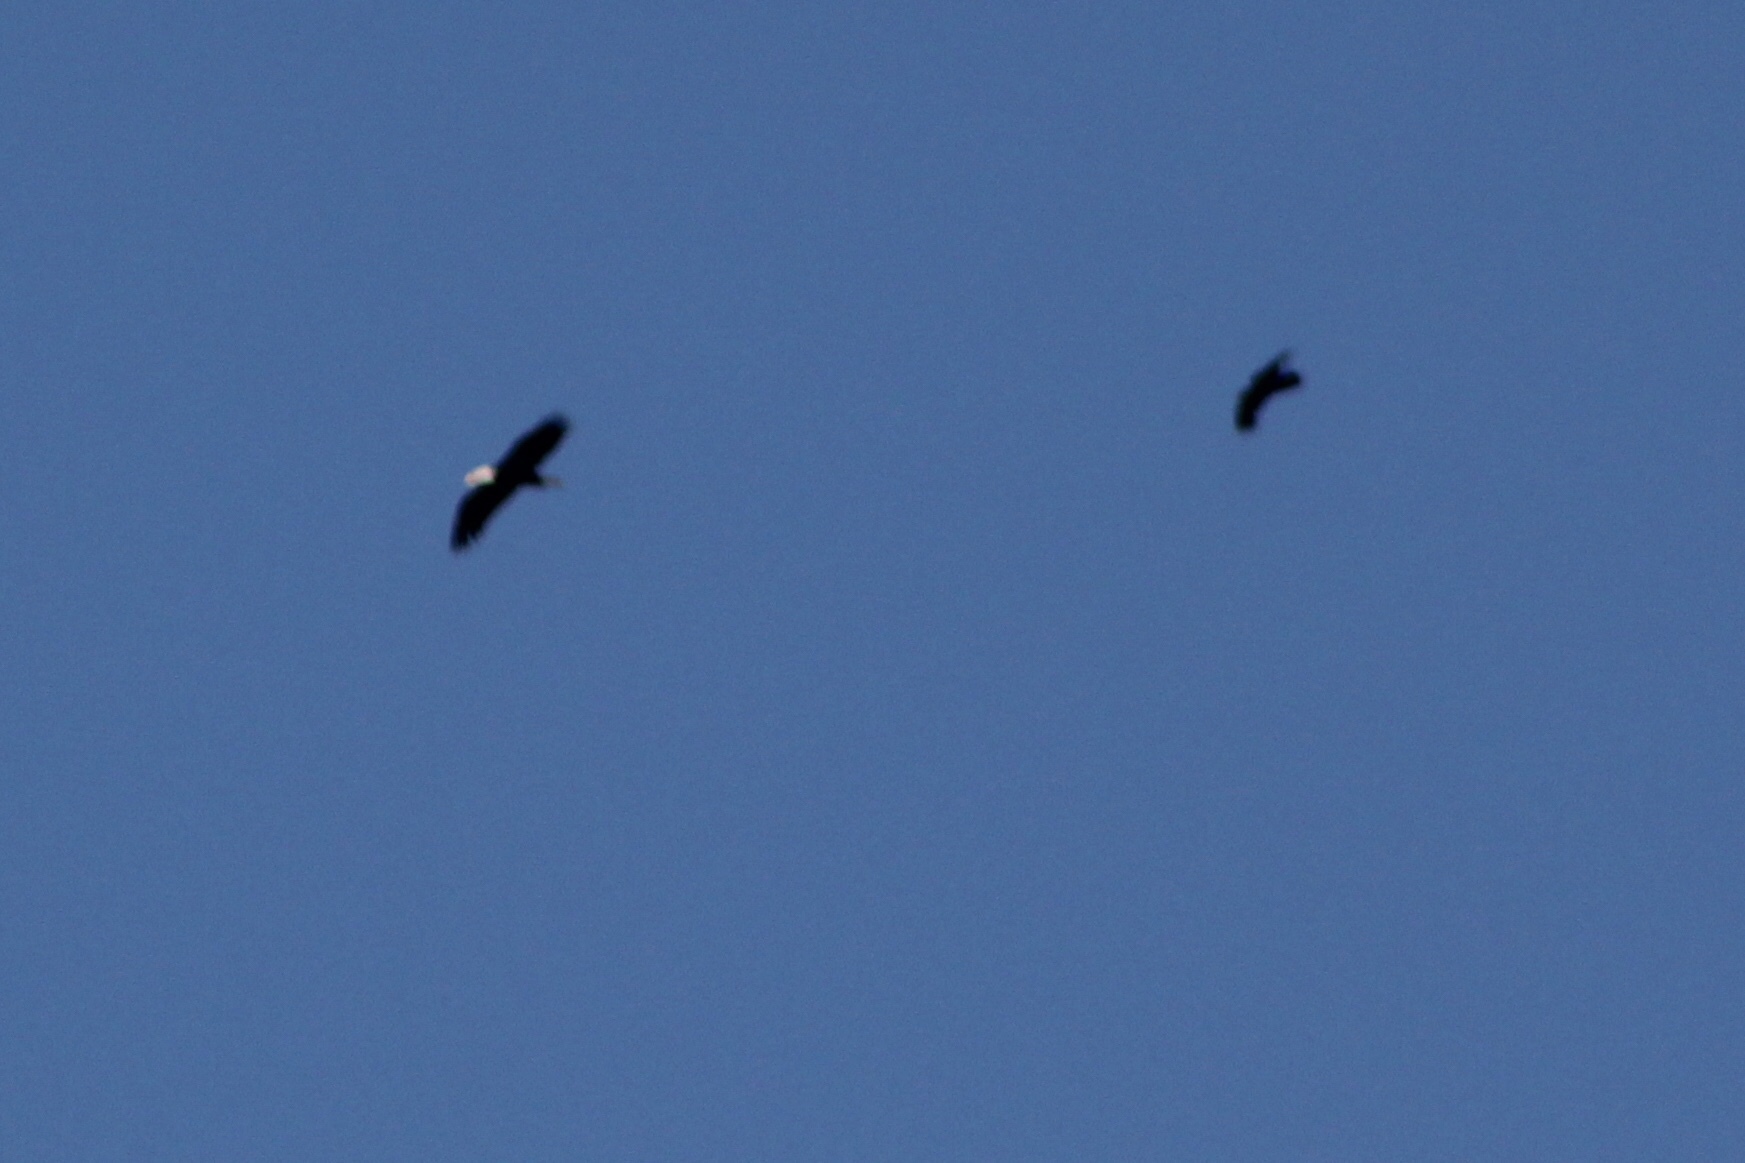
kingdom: Animalia
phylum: Chordata
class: Aves
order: Passeriformes
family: Corvidae
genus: Corvus
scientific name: Corvus corax
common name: Common raven
